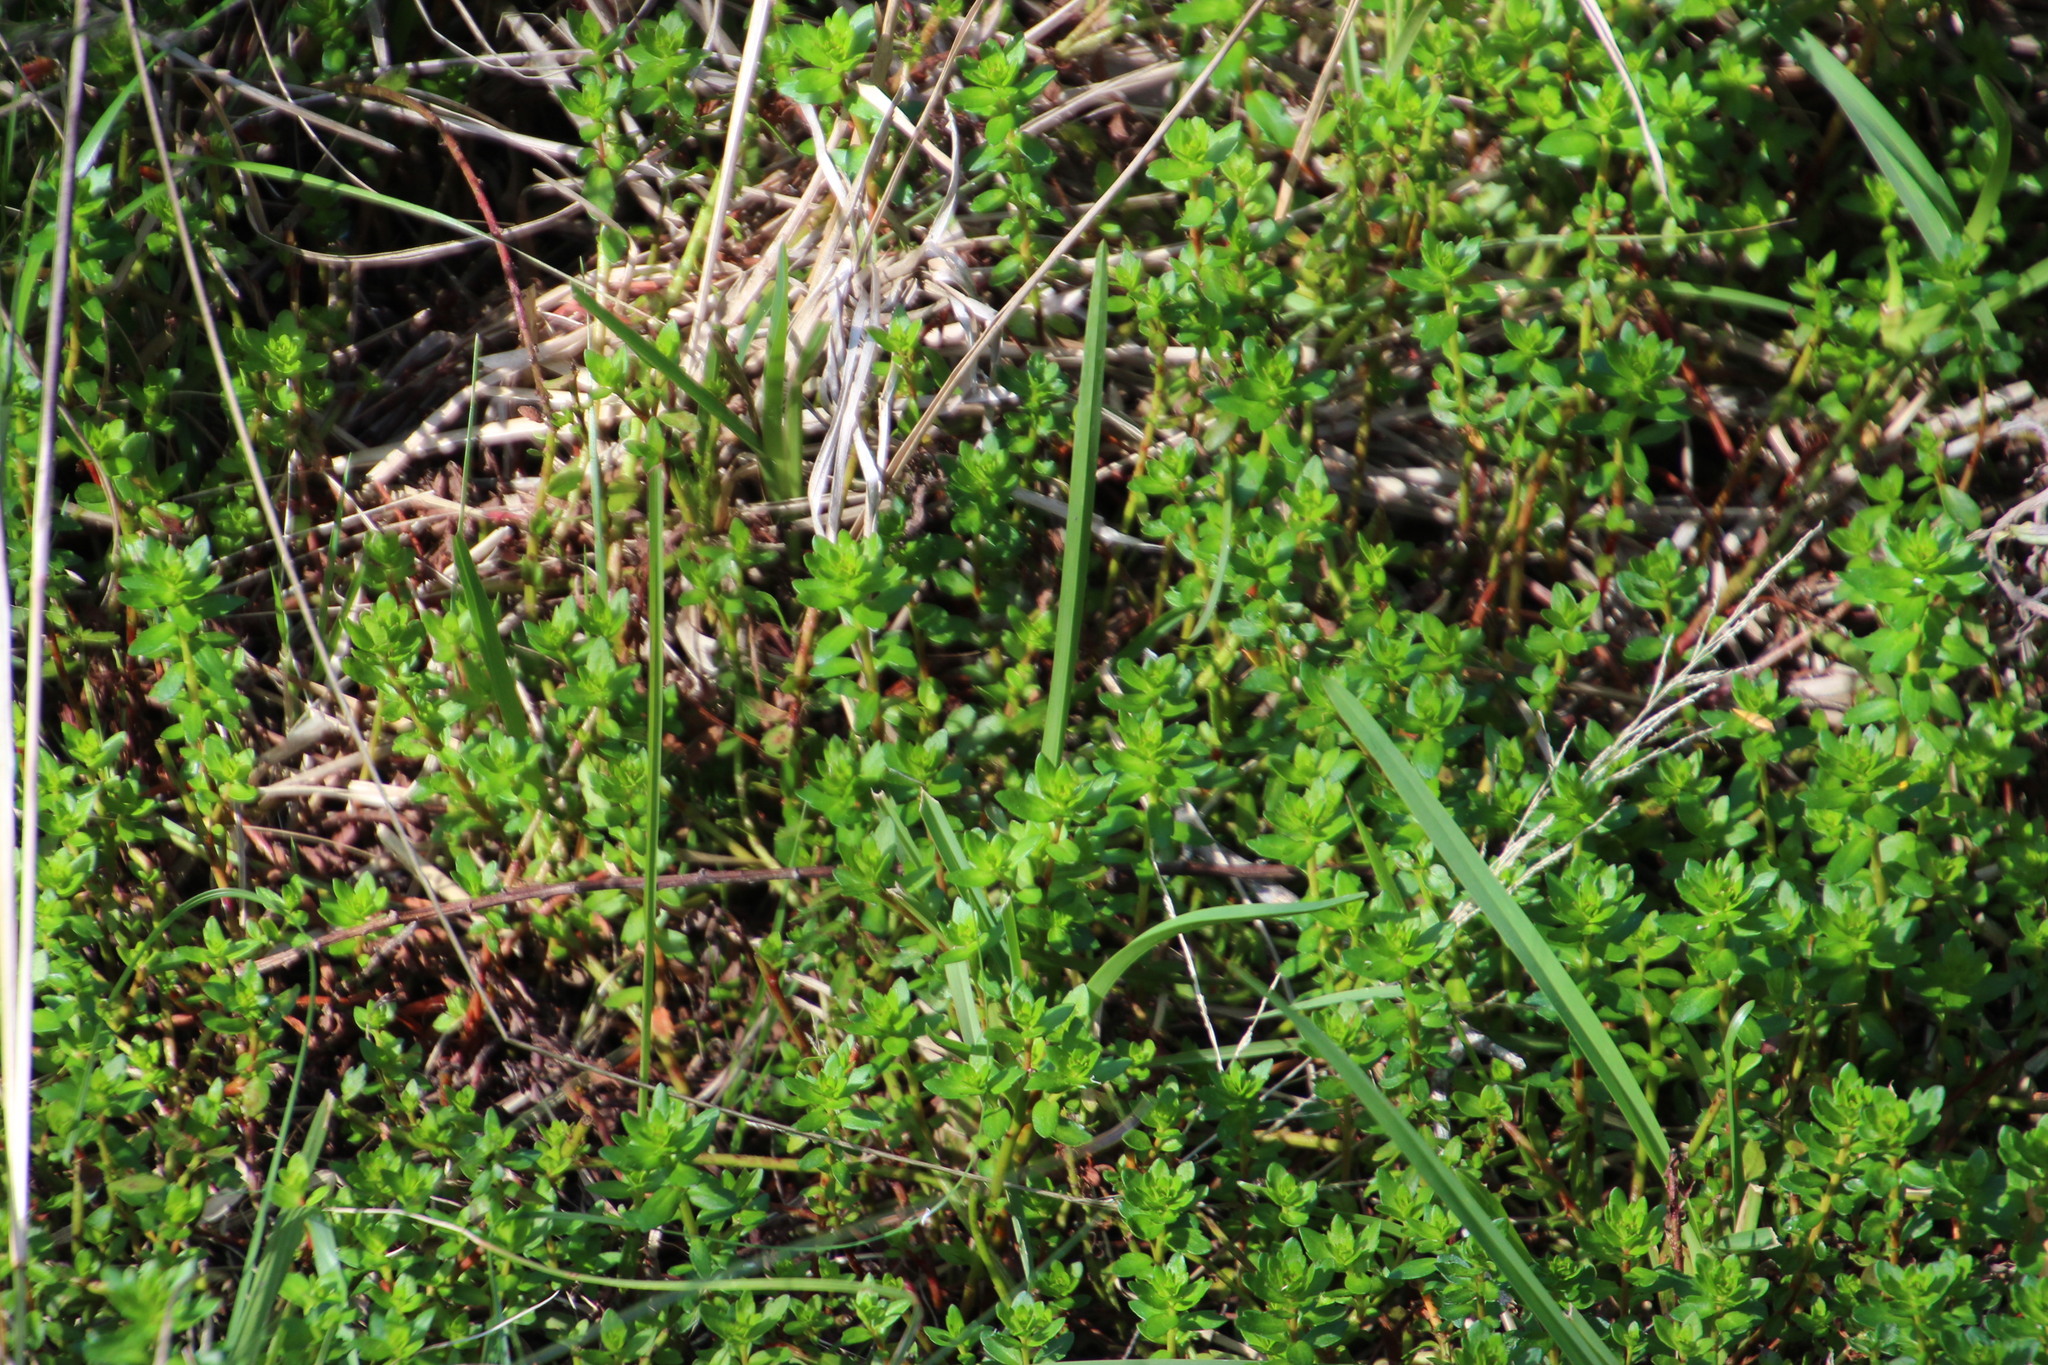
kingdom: Plantae
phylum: Tracheophyta
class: Magnoliopsida
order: Saxifragales
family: Haloragaceae
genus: Laurembergia
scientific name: Laurembergia repens
